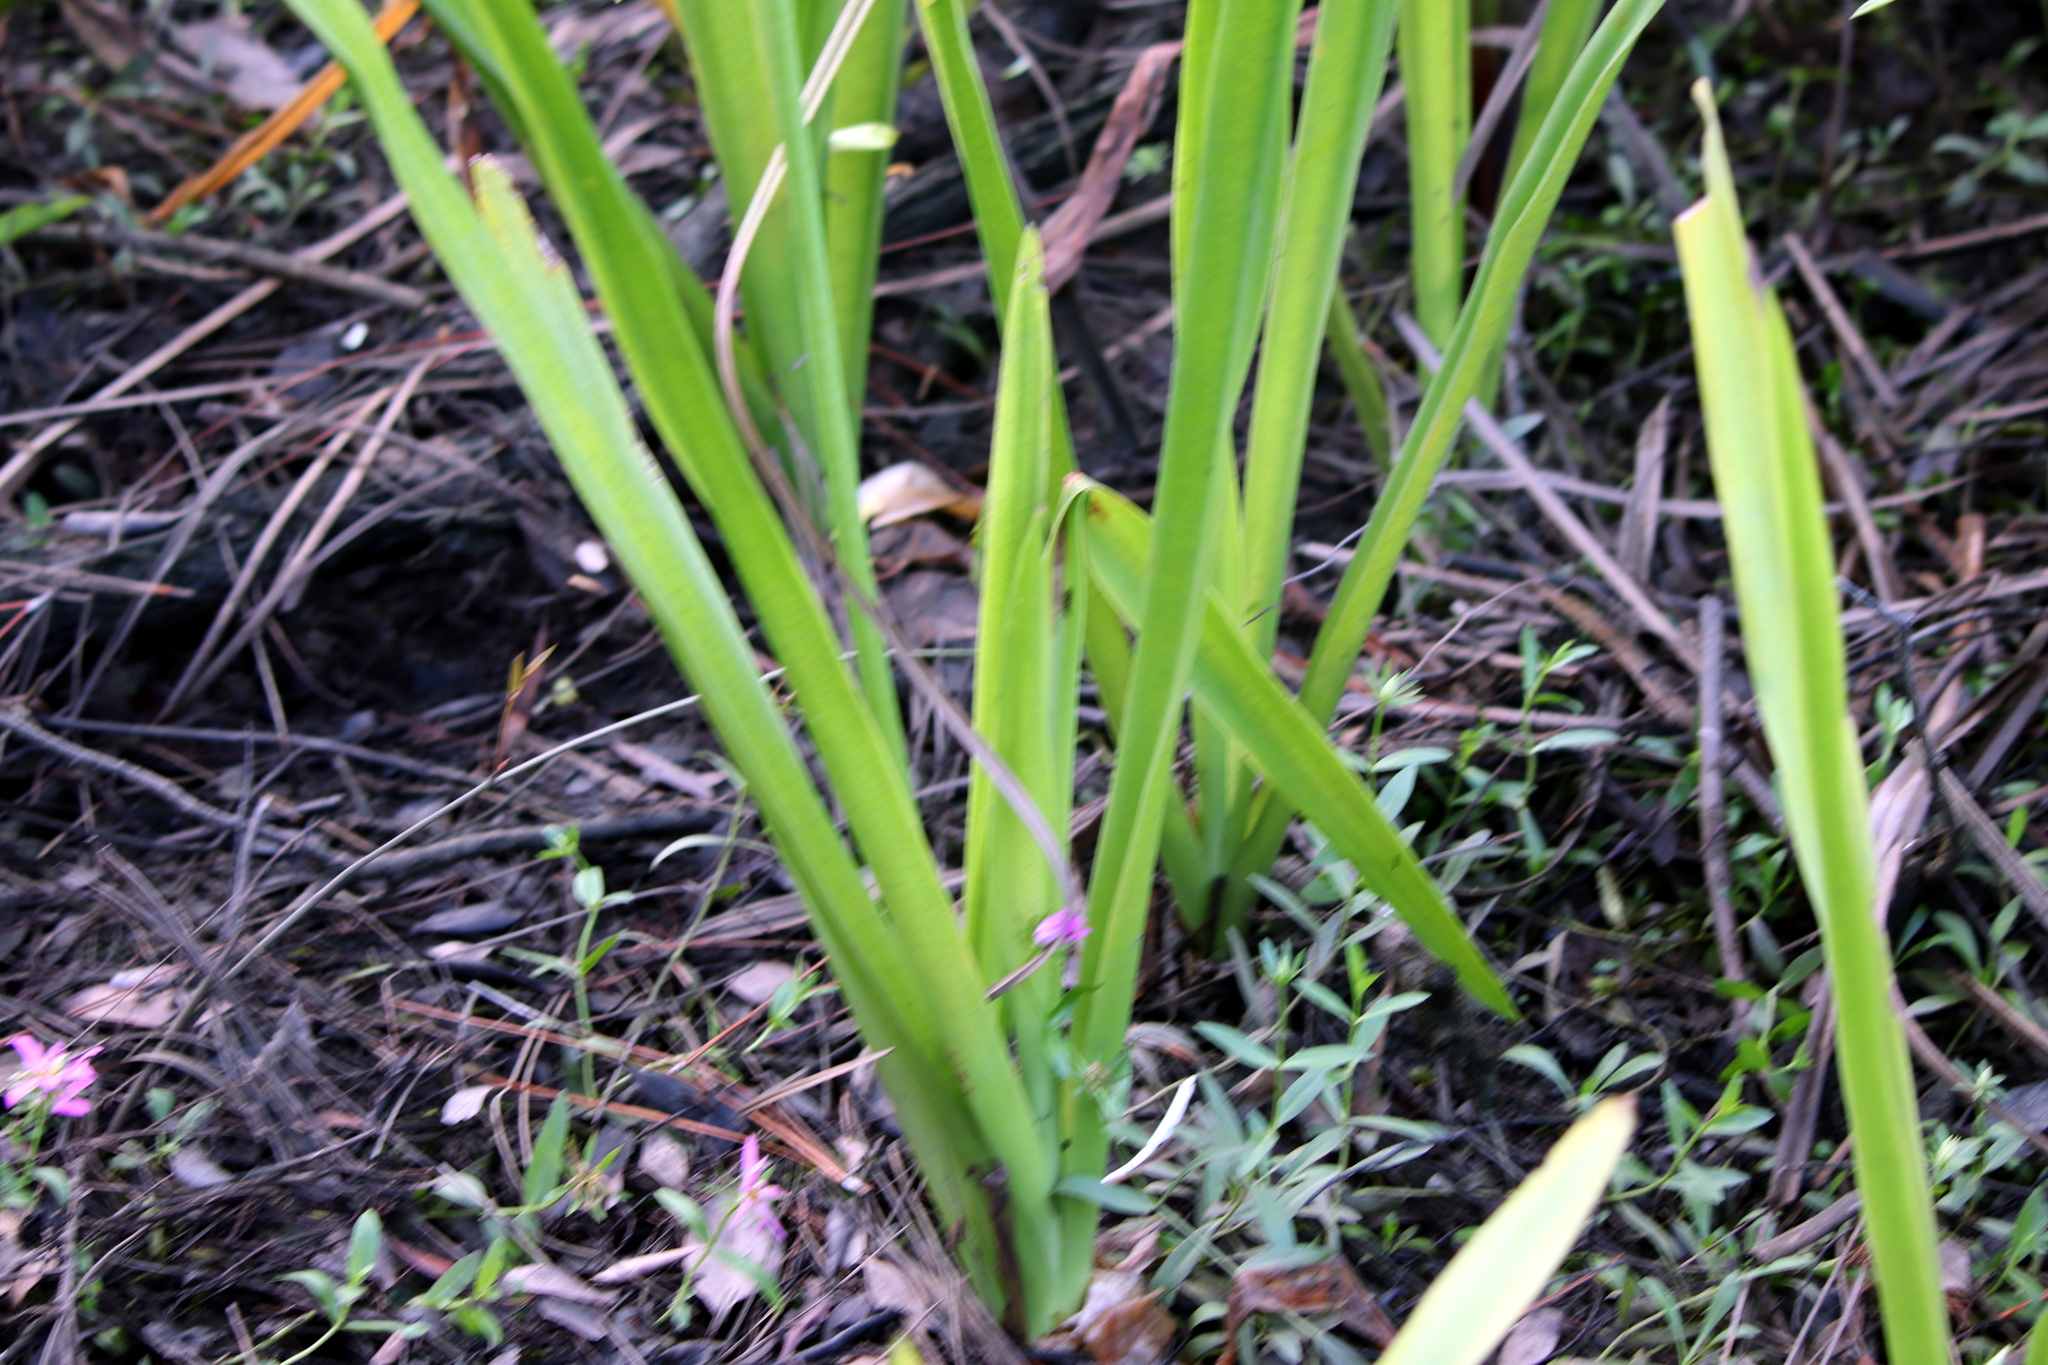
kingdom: Plantae
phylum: Tracheophyta
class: Liliopsida
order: Asparagales
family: Amaryllidaceae
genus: Crinum
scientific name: Crinum americanum
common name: Florida swamp-lily
